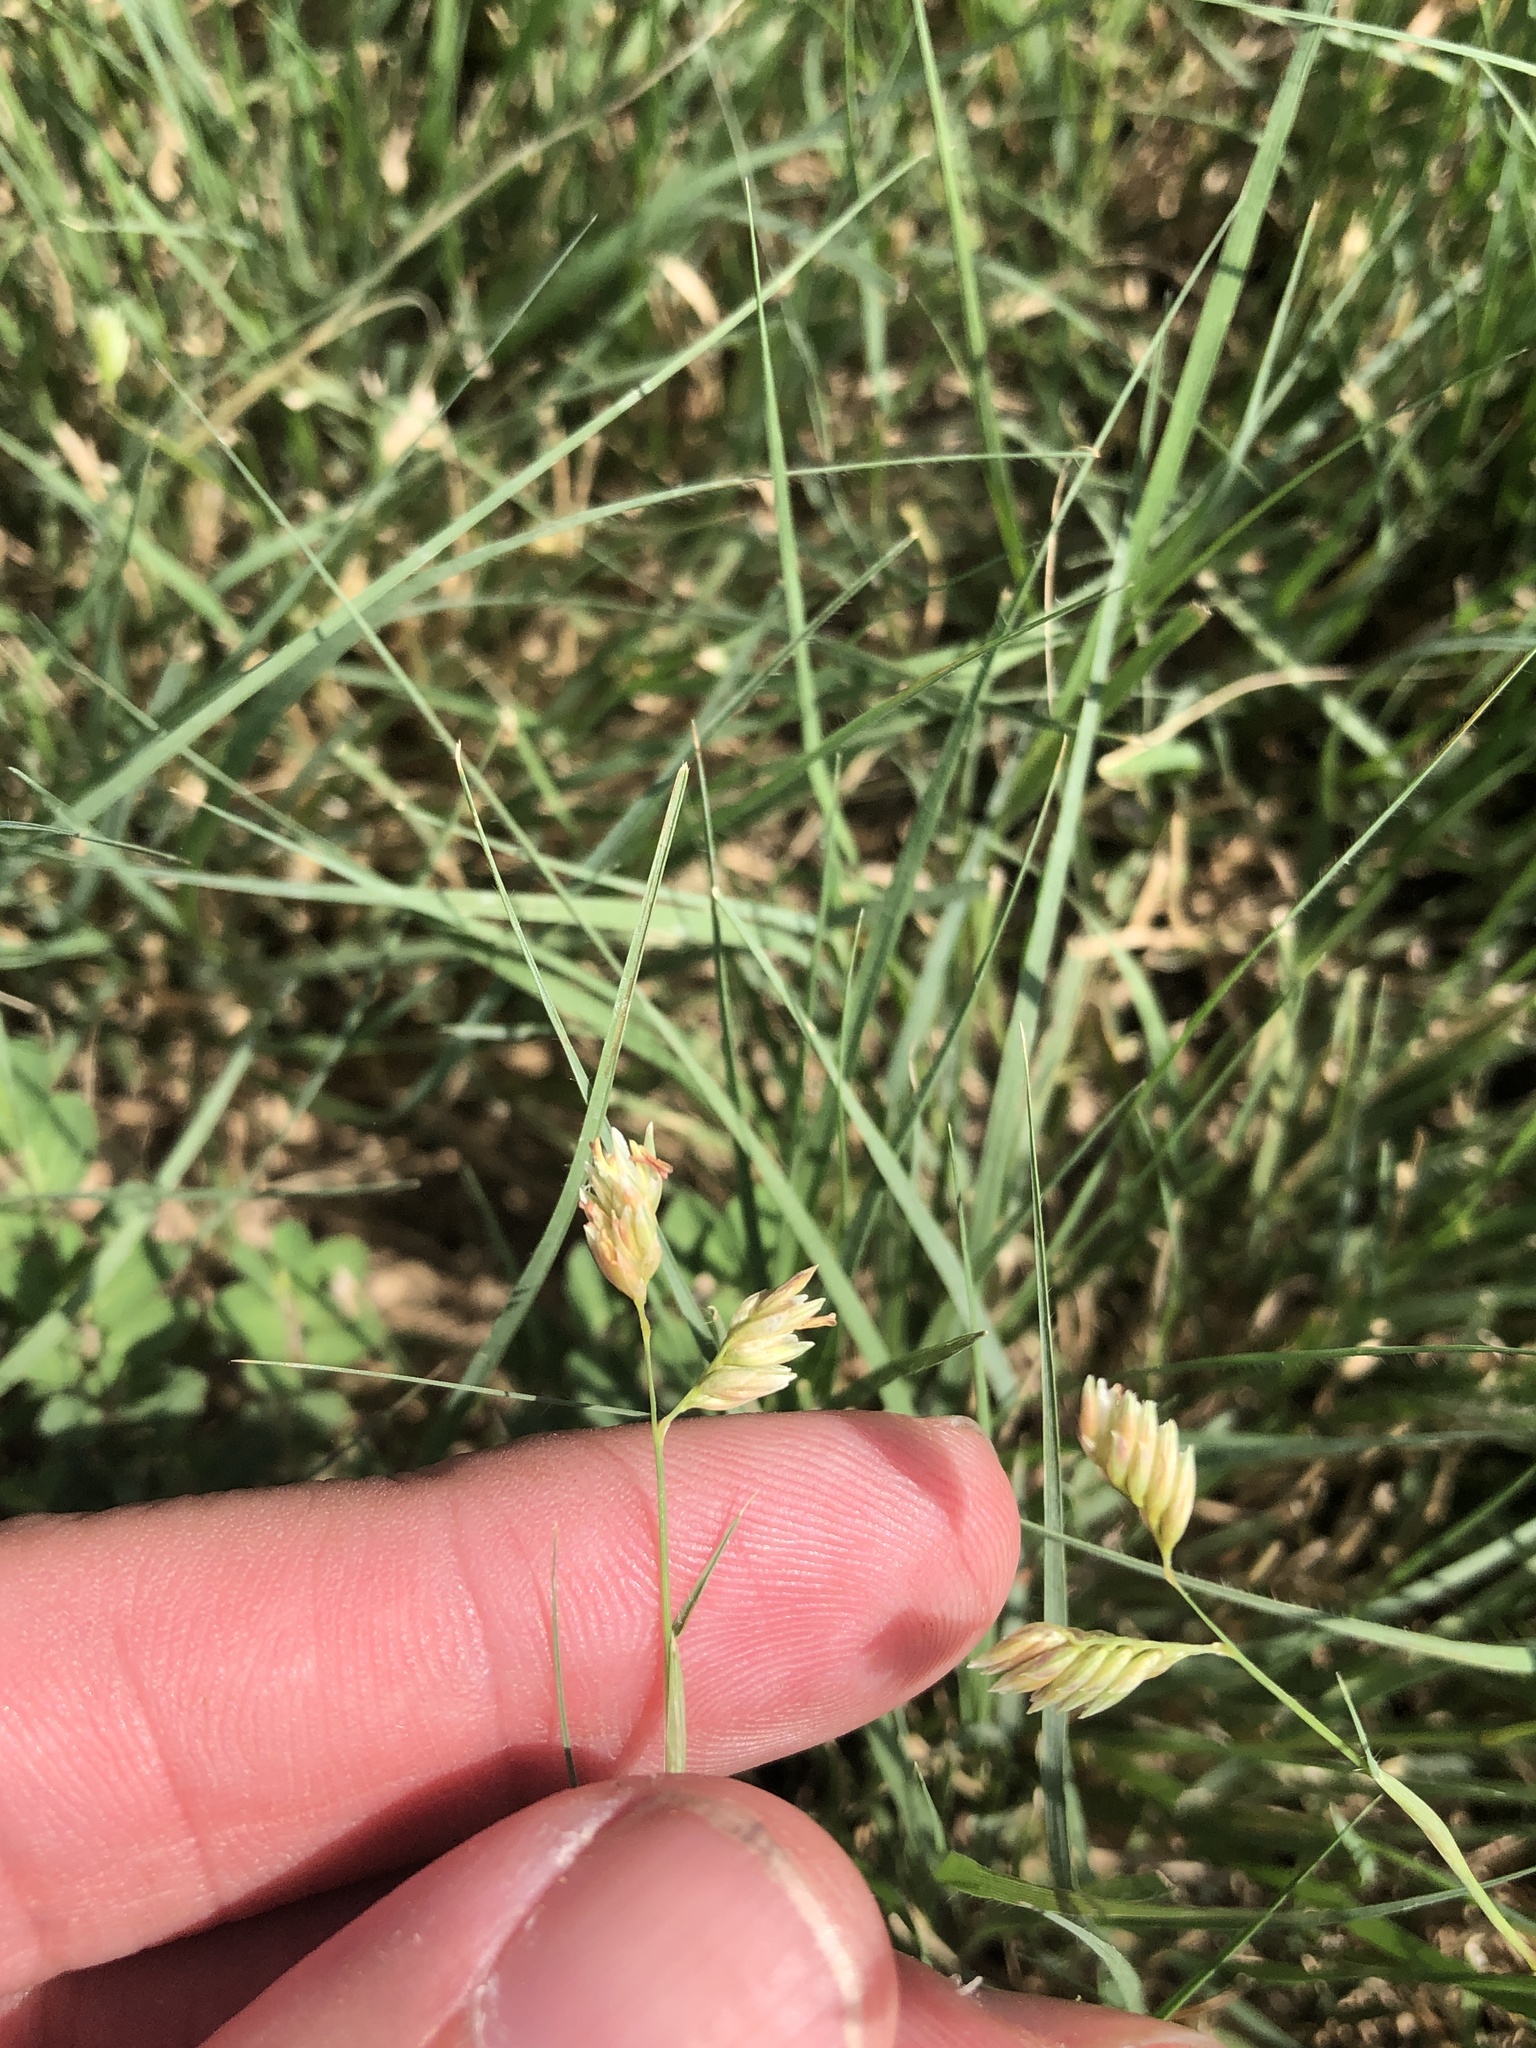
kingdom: Plantae
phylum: Tracheophyta
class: Liliopsida
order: Poales
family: Poaceae
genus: Bouteloua
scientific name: Bouteloua dactyloides
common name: Buffalo grass
